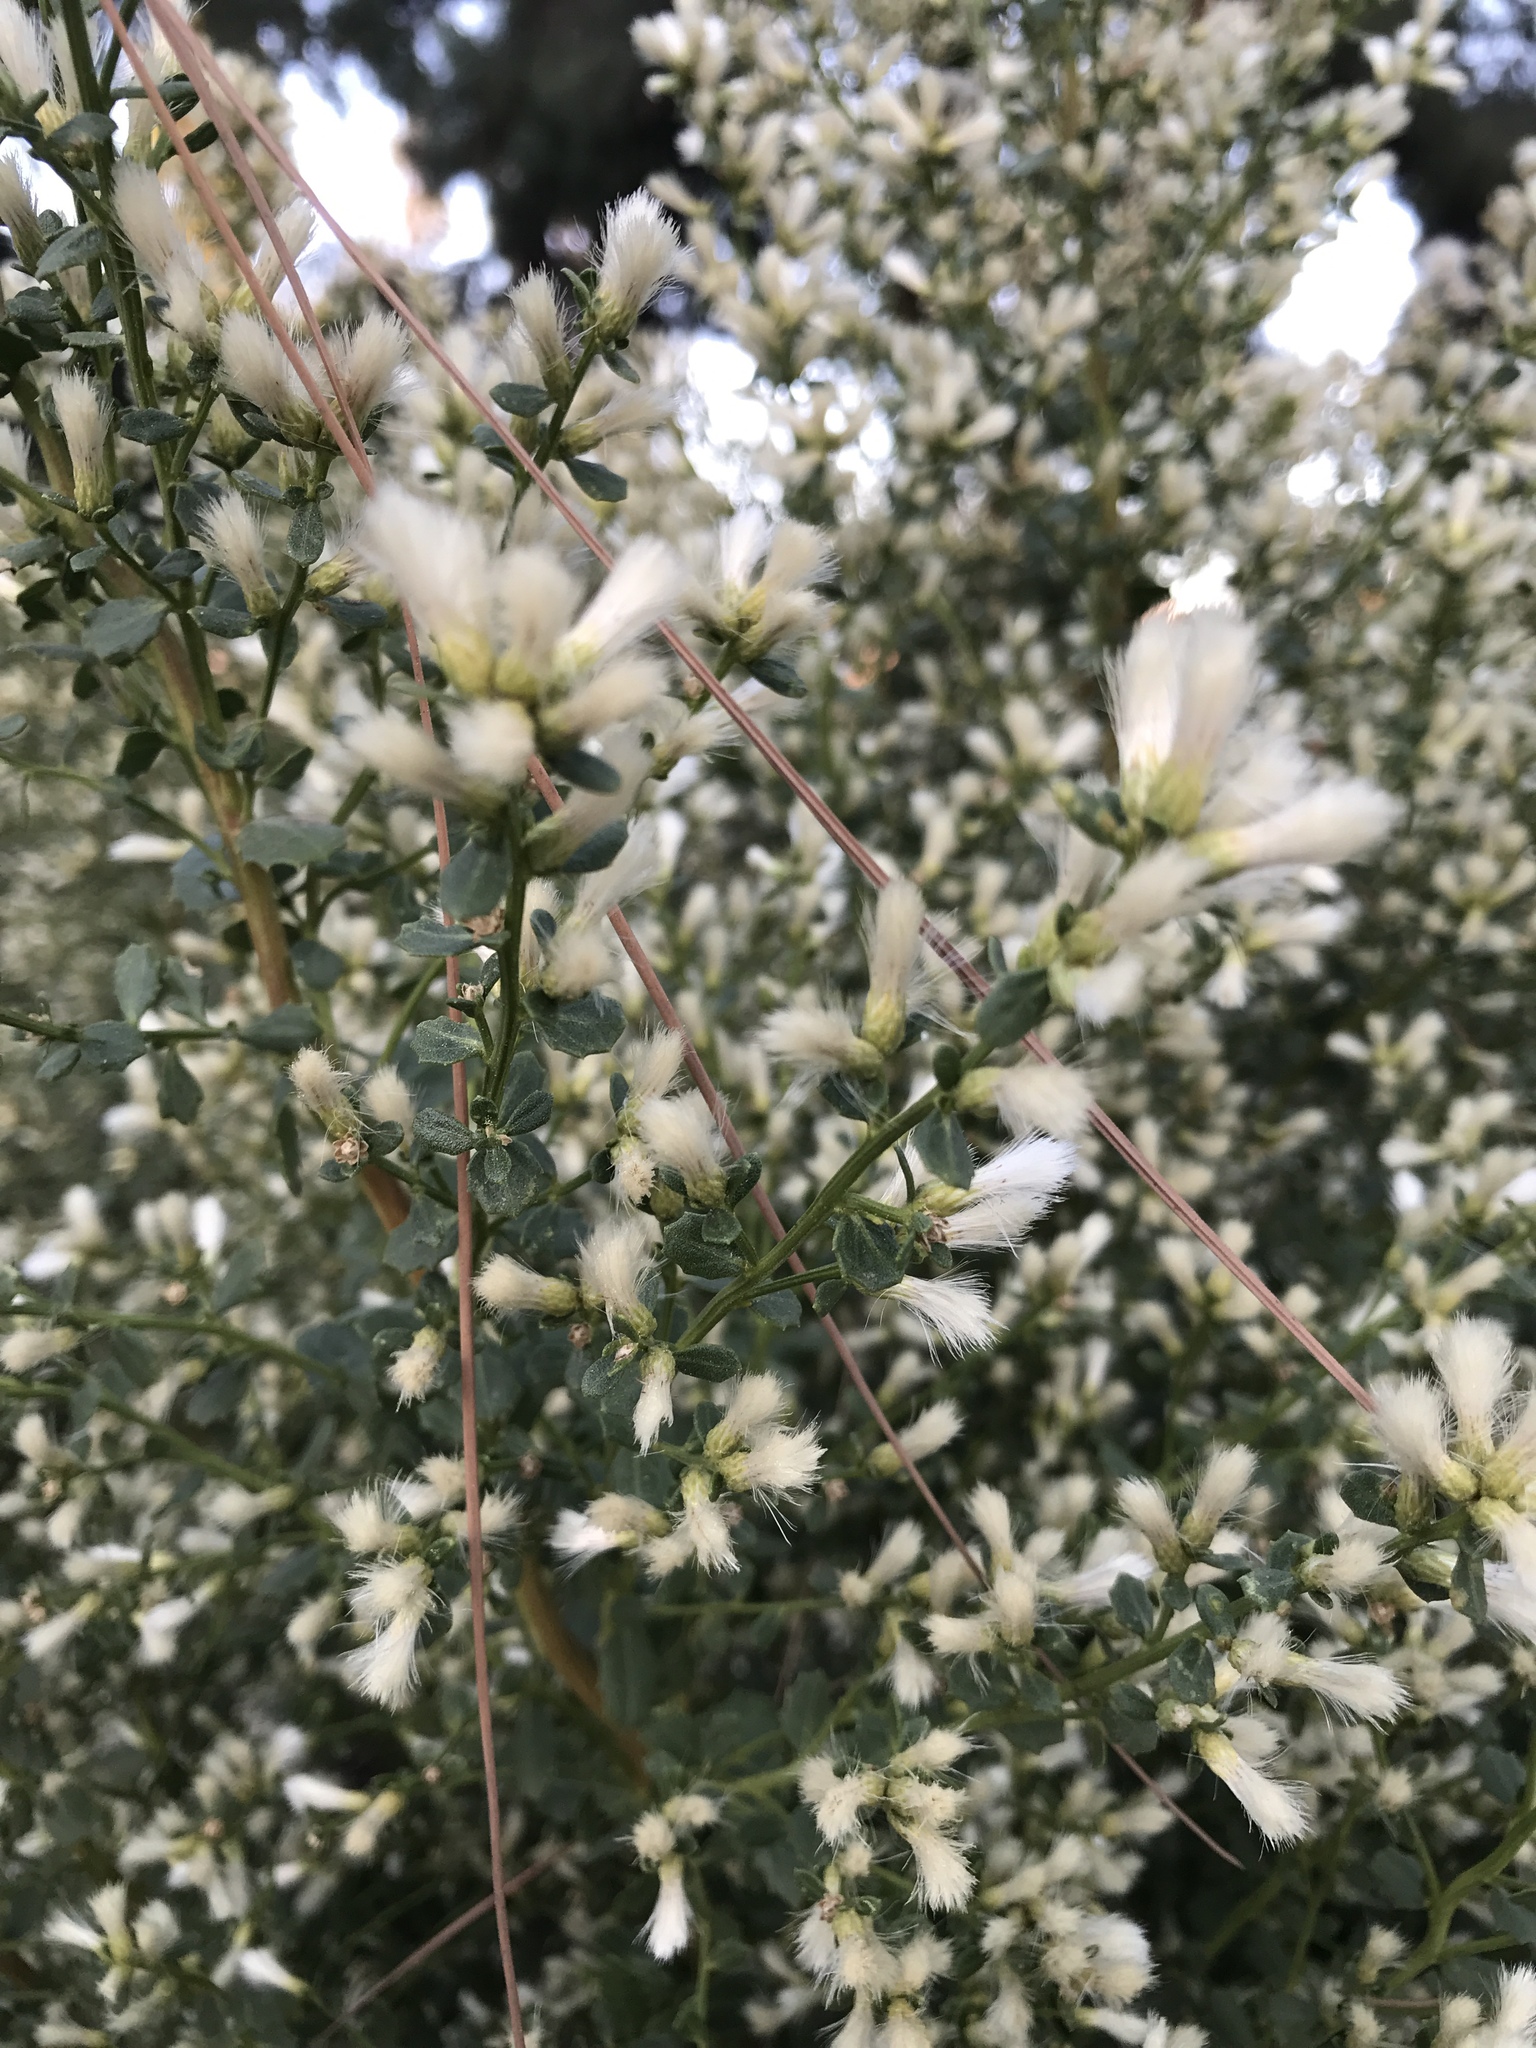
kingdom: Plantae
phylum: Tracheophyta
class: Magnoliopsida
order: Asterales
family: Asteraceae
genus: Baccharis
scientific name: Baccharis pilularis
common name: Coyotebrush
